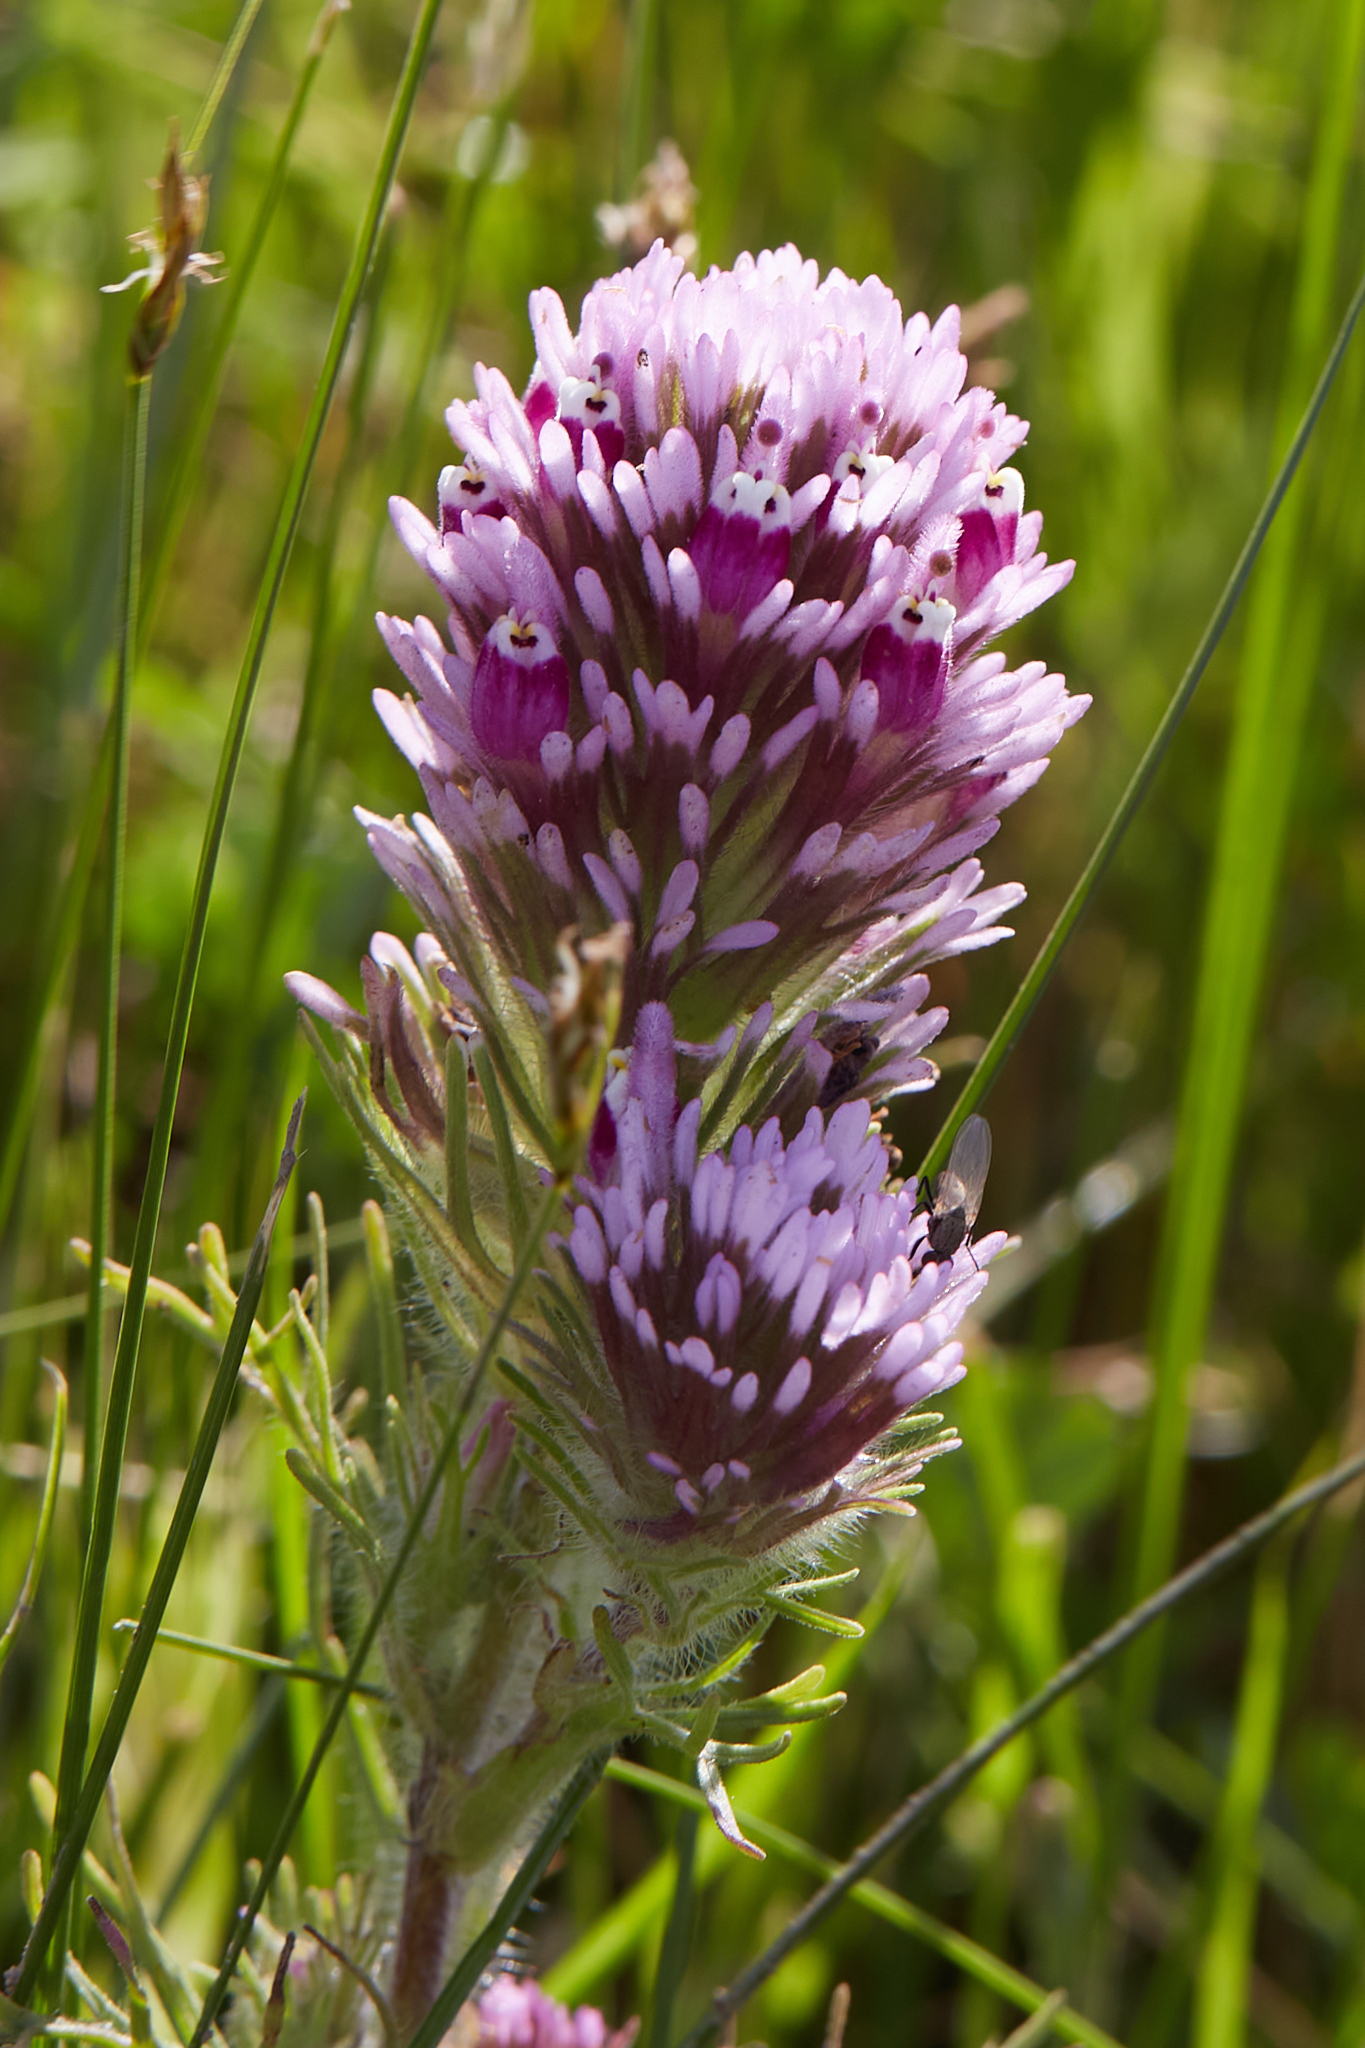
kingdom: Plantae
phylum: Tracheophyta
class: Magnoliopsida
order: Lamiales
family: Orobanchaceae
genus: Castilleja
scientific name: Castilleja exserta
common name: Purple owl-clover
